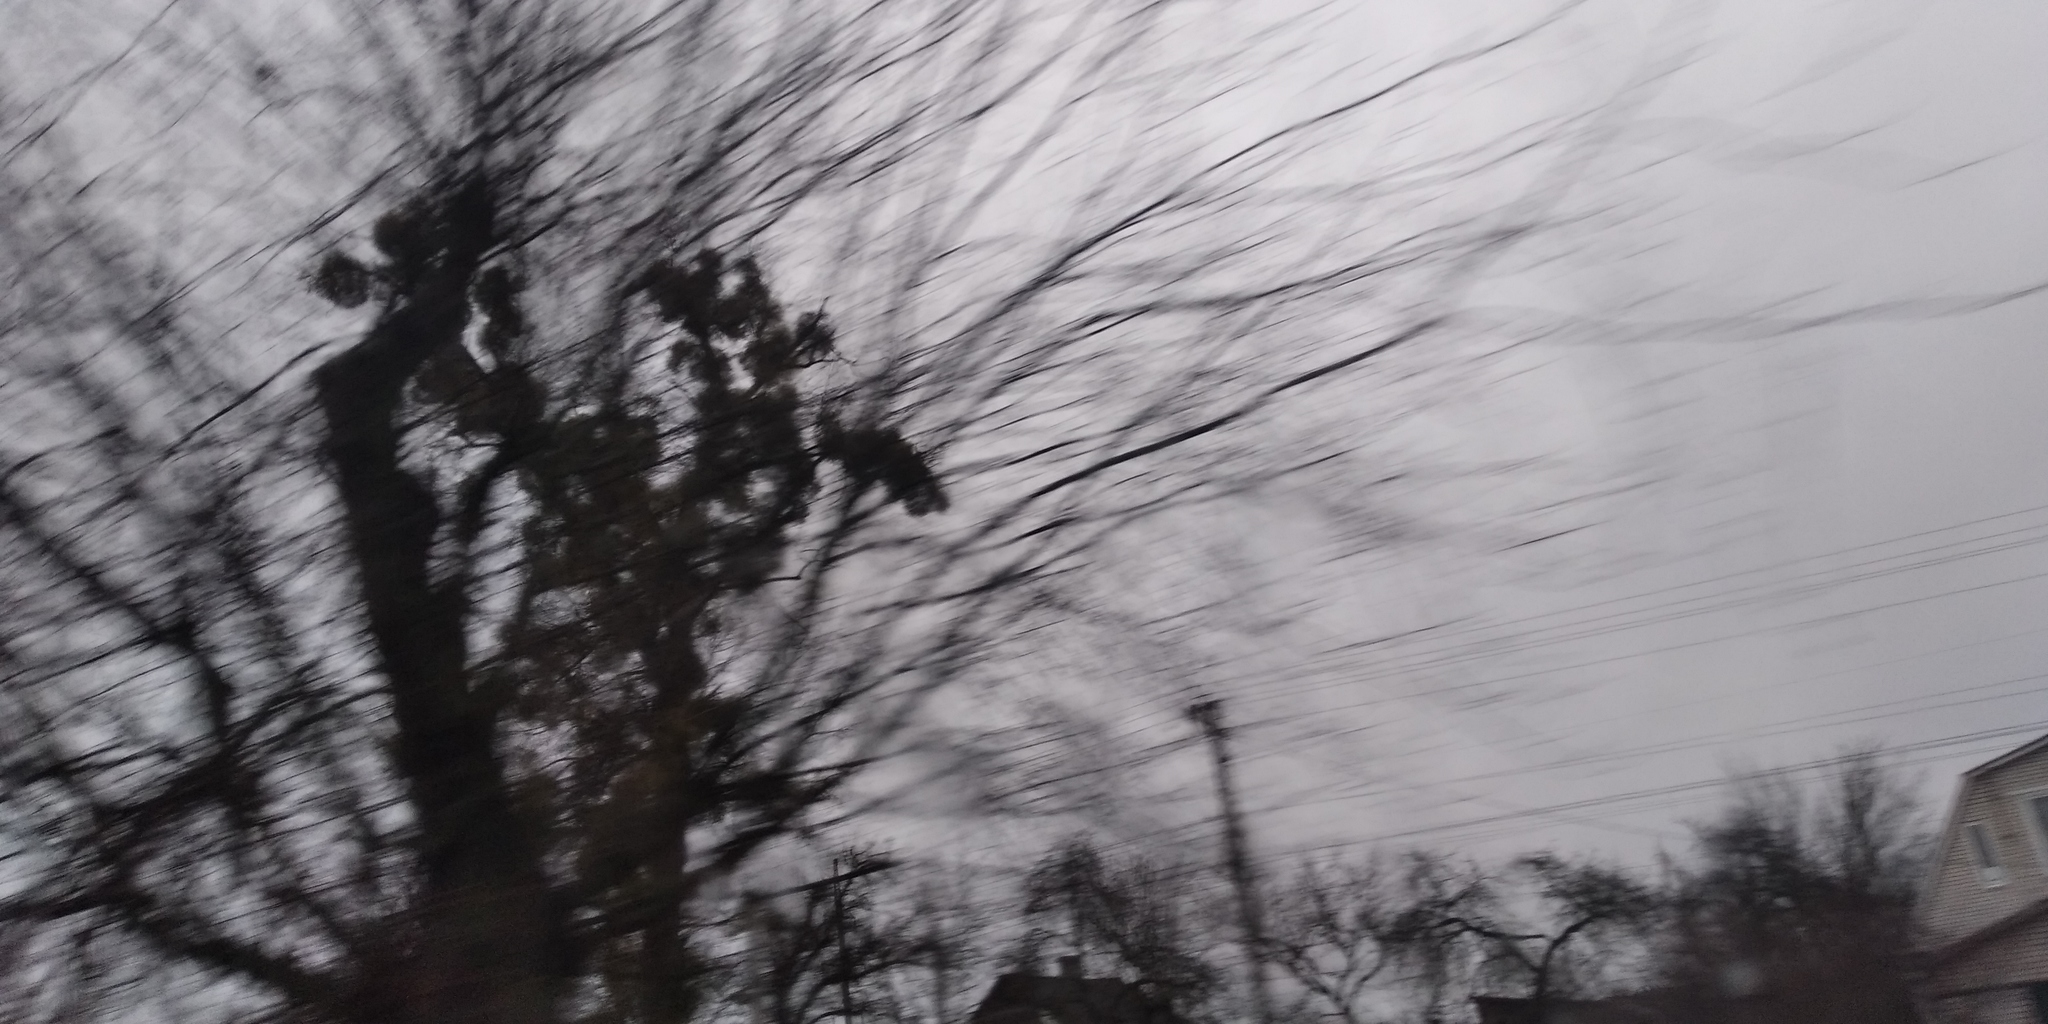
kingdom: Plantae
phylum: Tracheophyta
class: Magnoliopsida
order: Santalales
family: Viscaceae
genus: Viscum
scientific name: Viscum album
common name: Mistletoe
